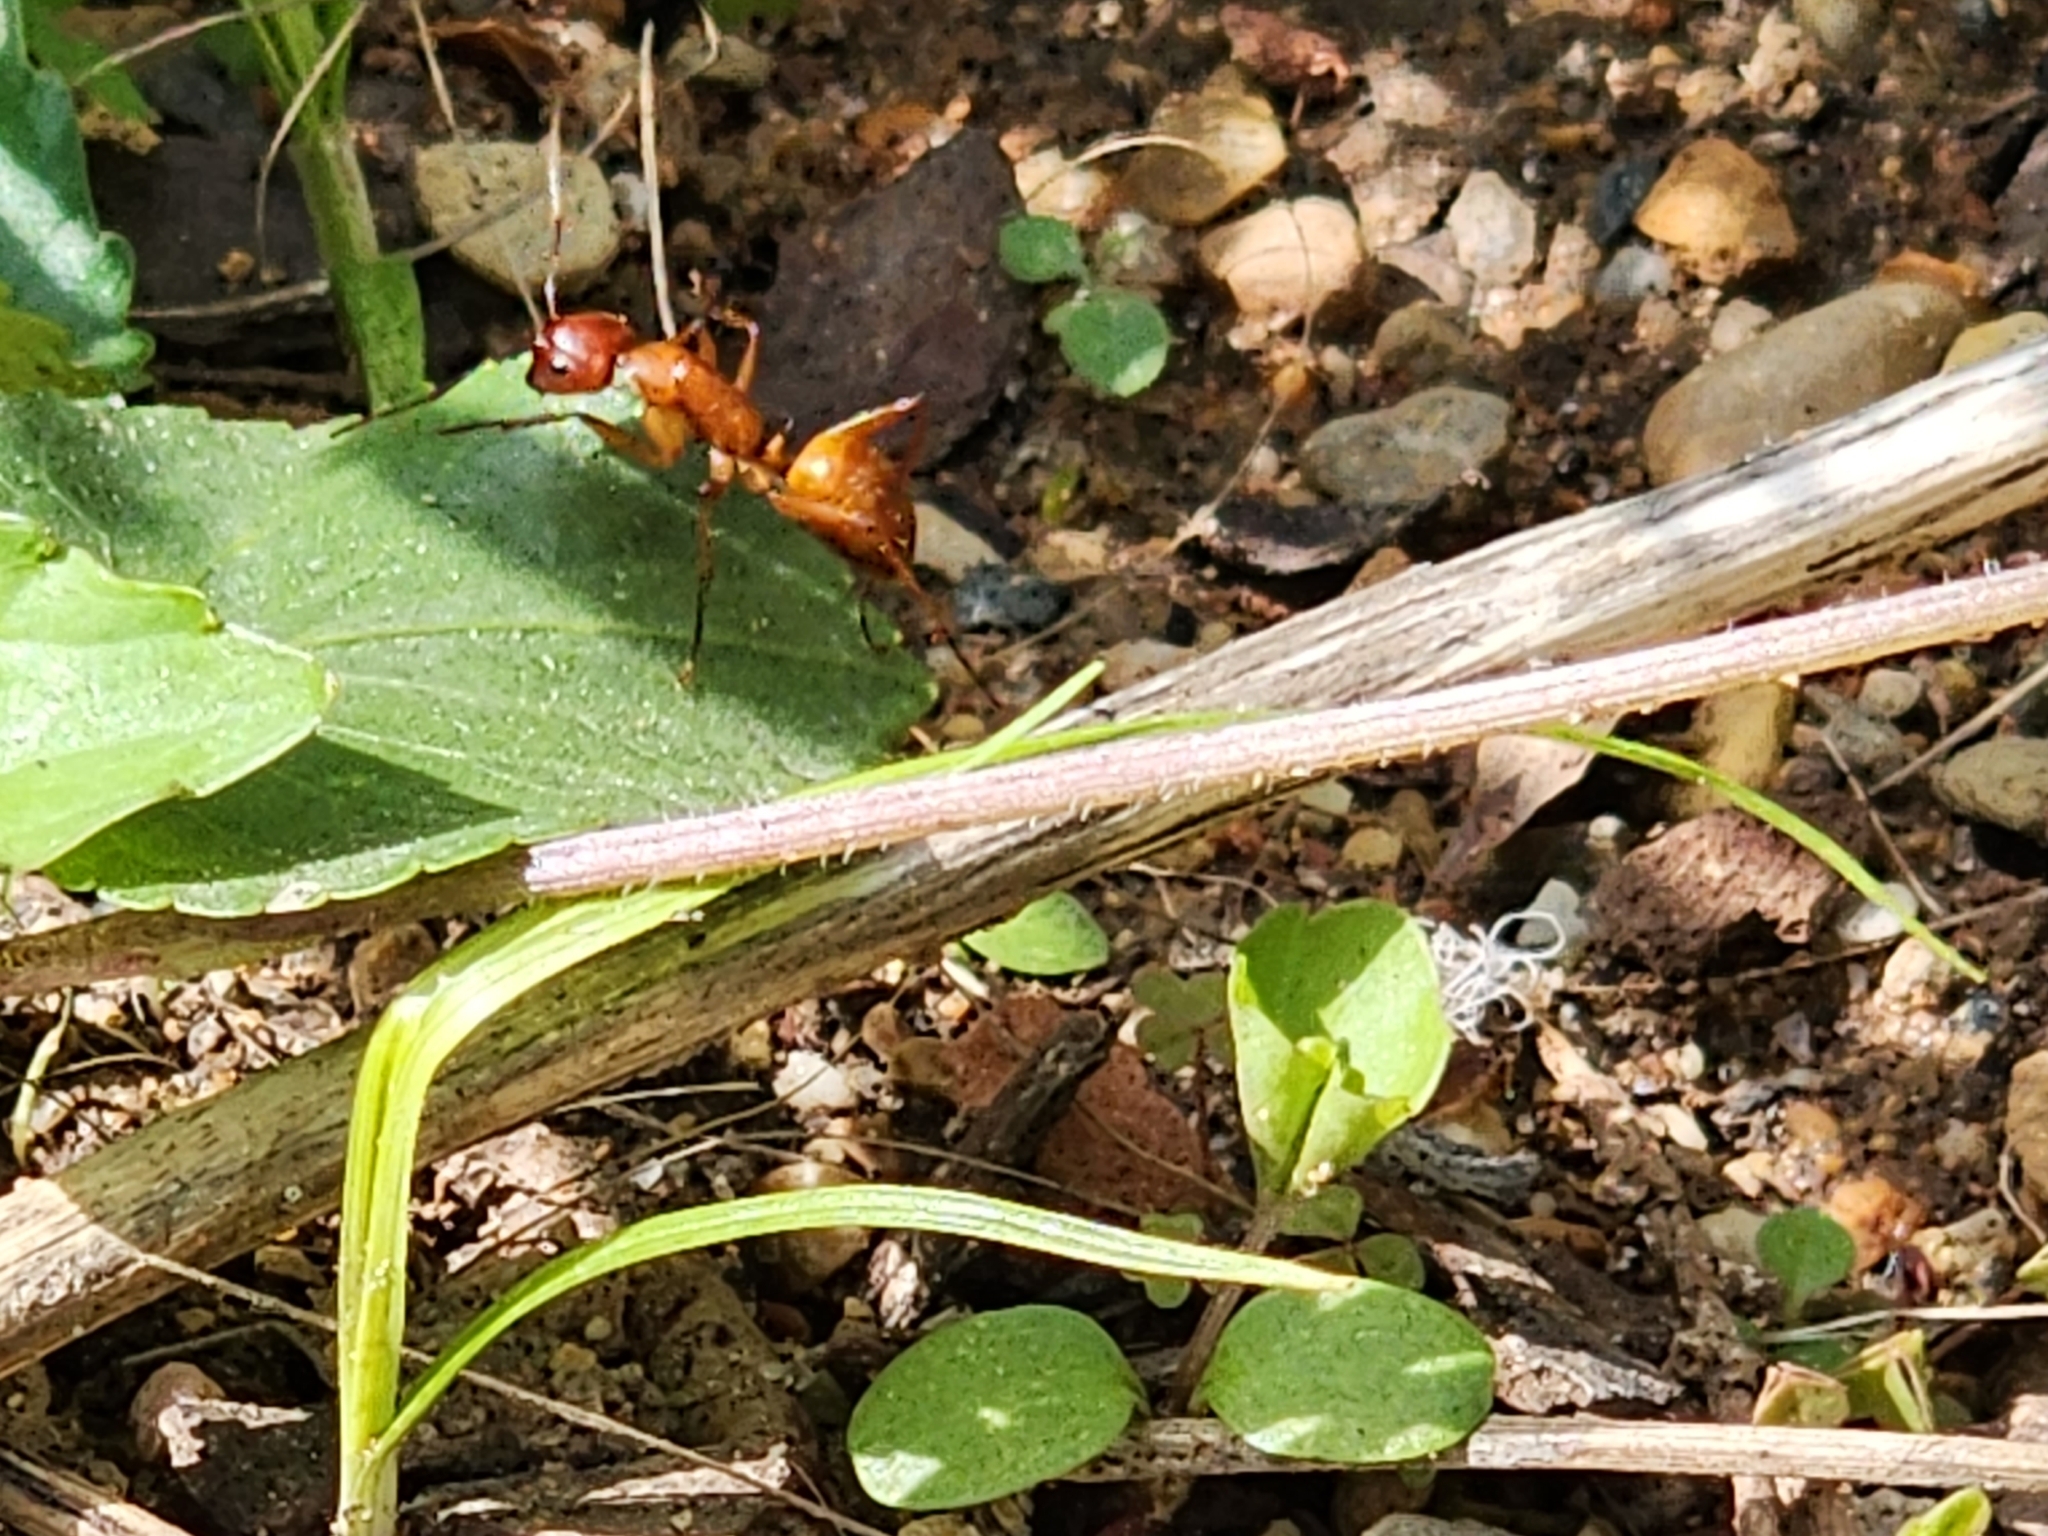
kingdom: Animalia
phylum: Arthropoda
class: Insecta
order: Hymenoptera
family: Formicidae
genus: Camponotus
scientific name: Camponotus castaneus
